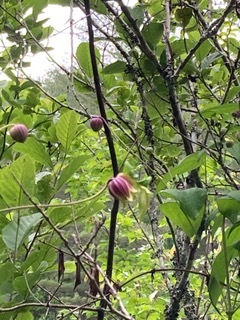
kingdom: Plantae
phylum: Tracheophyta
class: Magnoliopsida
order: Ranunculales
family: Ranunculaceae
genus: Clematis
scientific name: Clematis viorna
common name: Leather-flower
